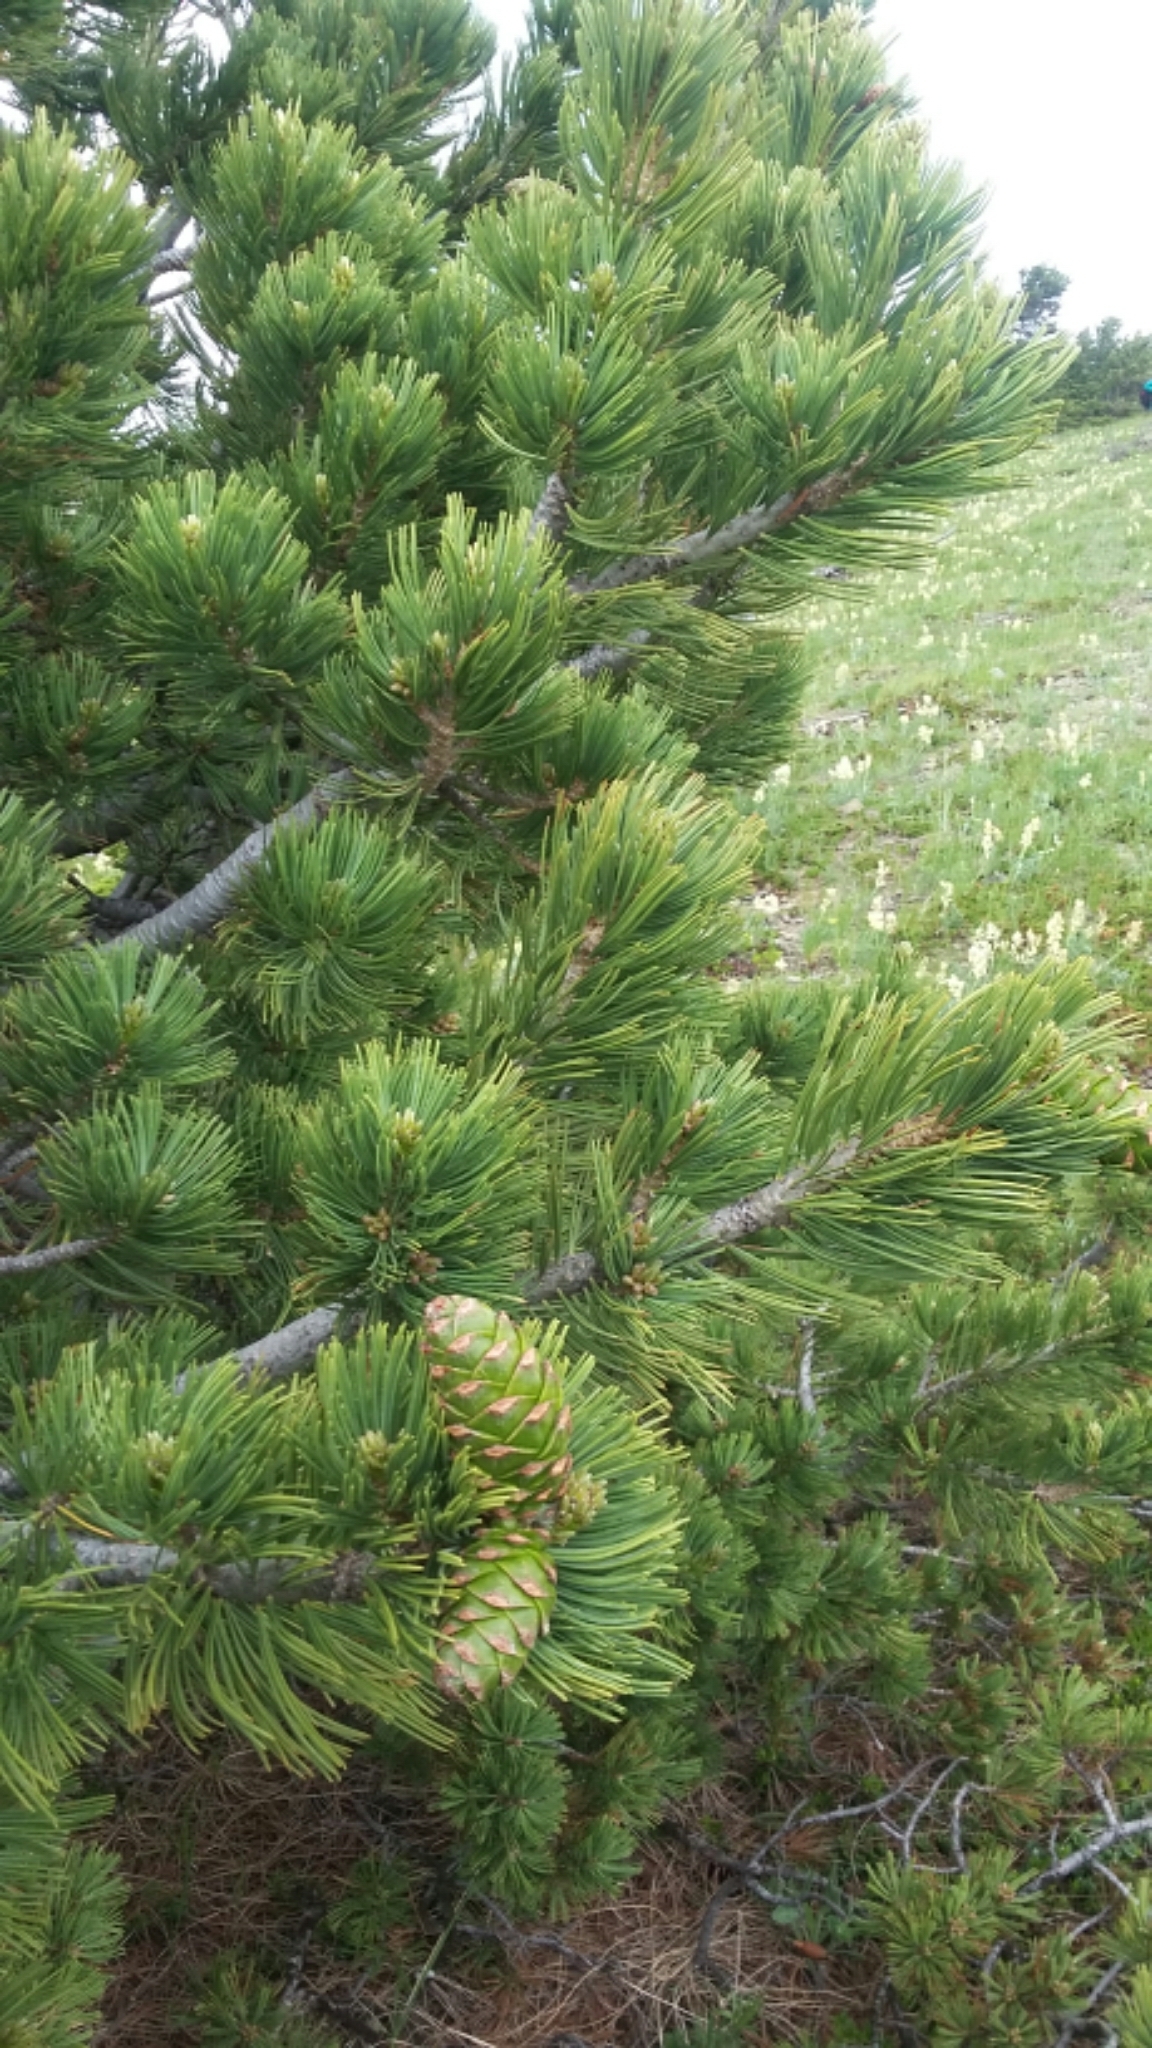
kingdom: Plantae
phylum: Tracheophyta
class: Pinopsida
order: Pinales
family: Pinaceae
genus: Pinus
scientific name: Pinus flexilis
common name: Limber pine
